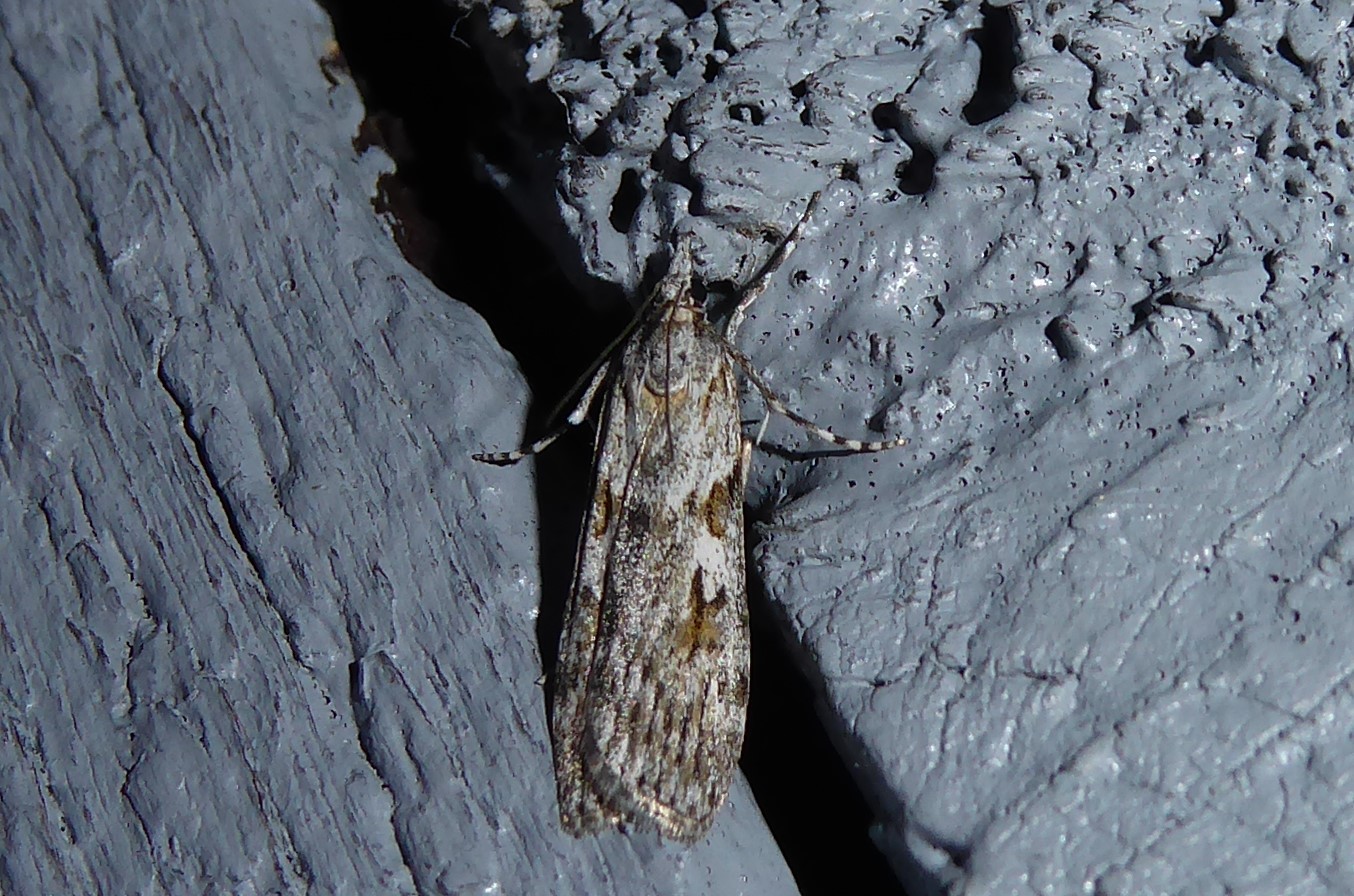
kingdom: Animalia
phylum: Arthropoda
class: Insecta
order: Lepidoptera
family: Crambidae
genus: Scoparia
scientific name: Scoparia halopis
